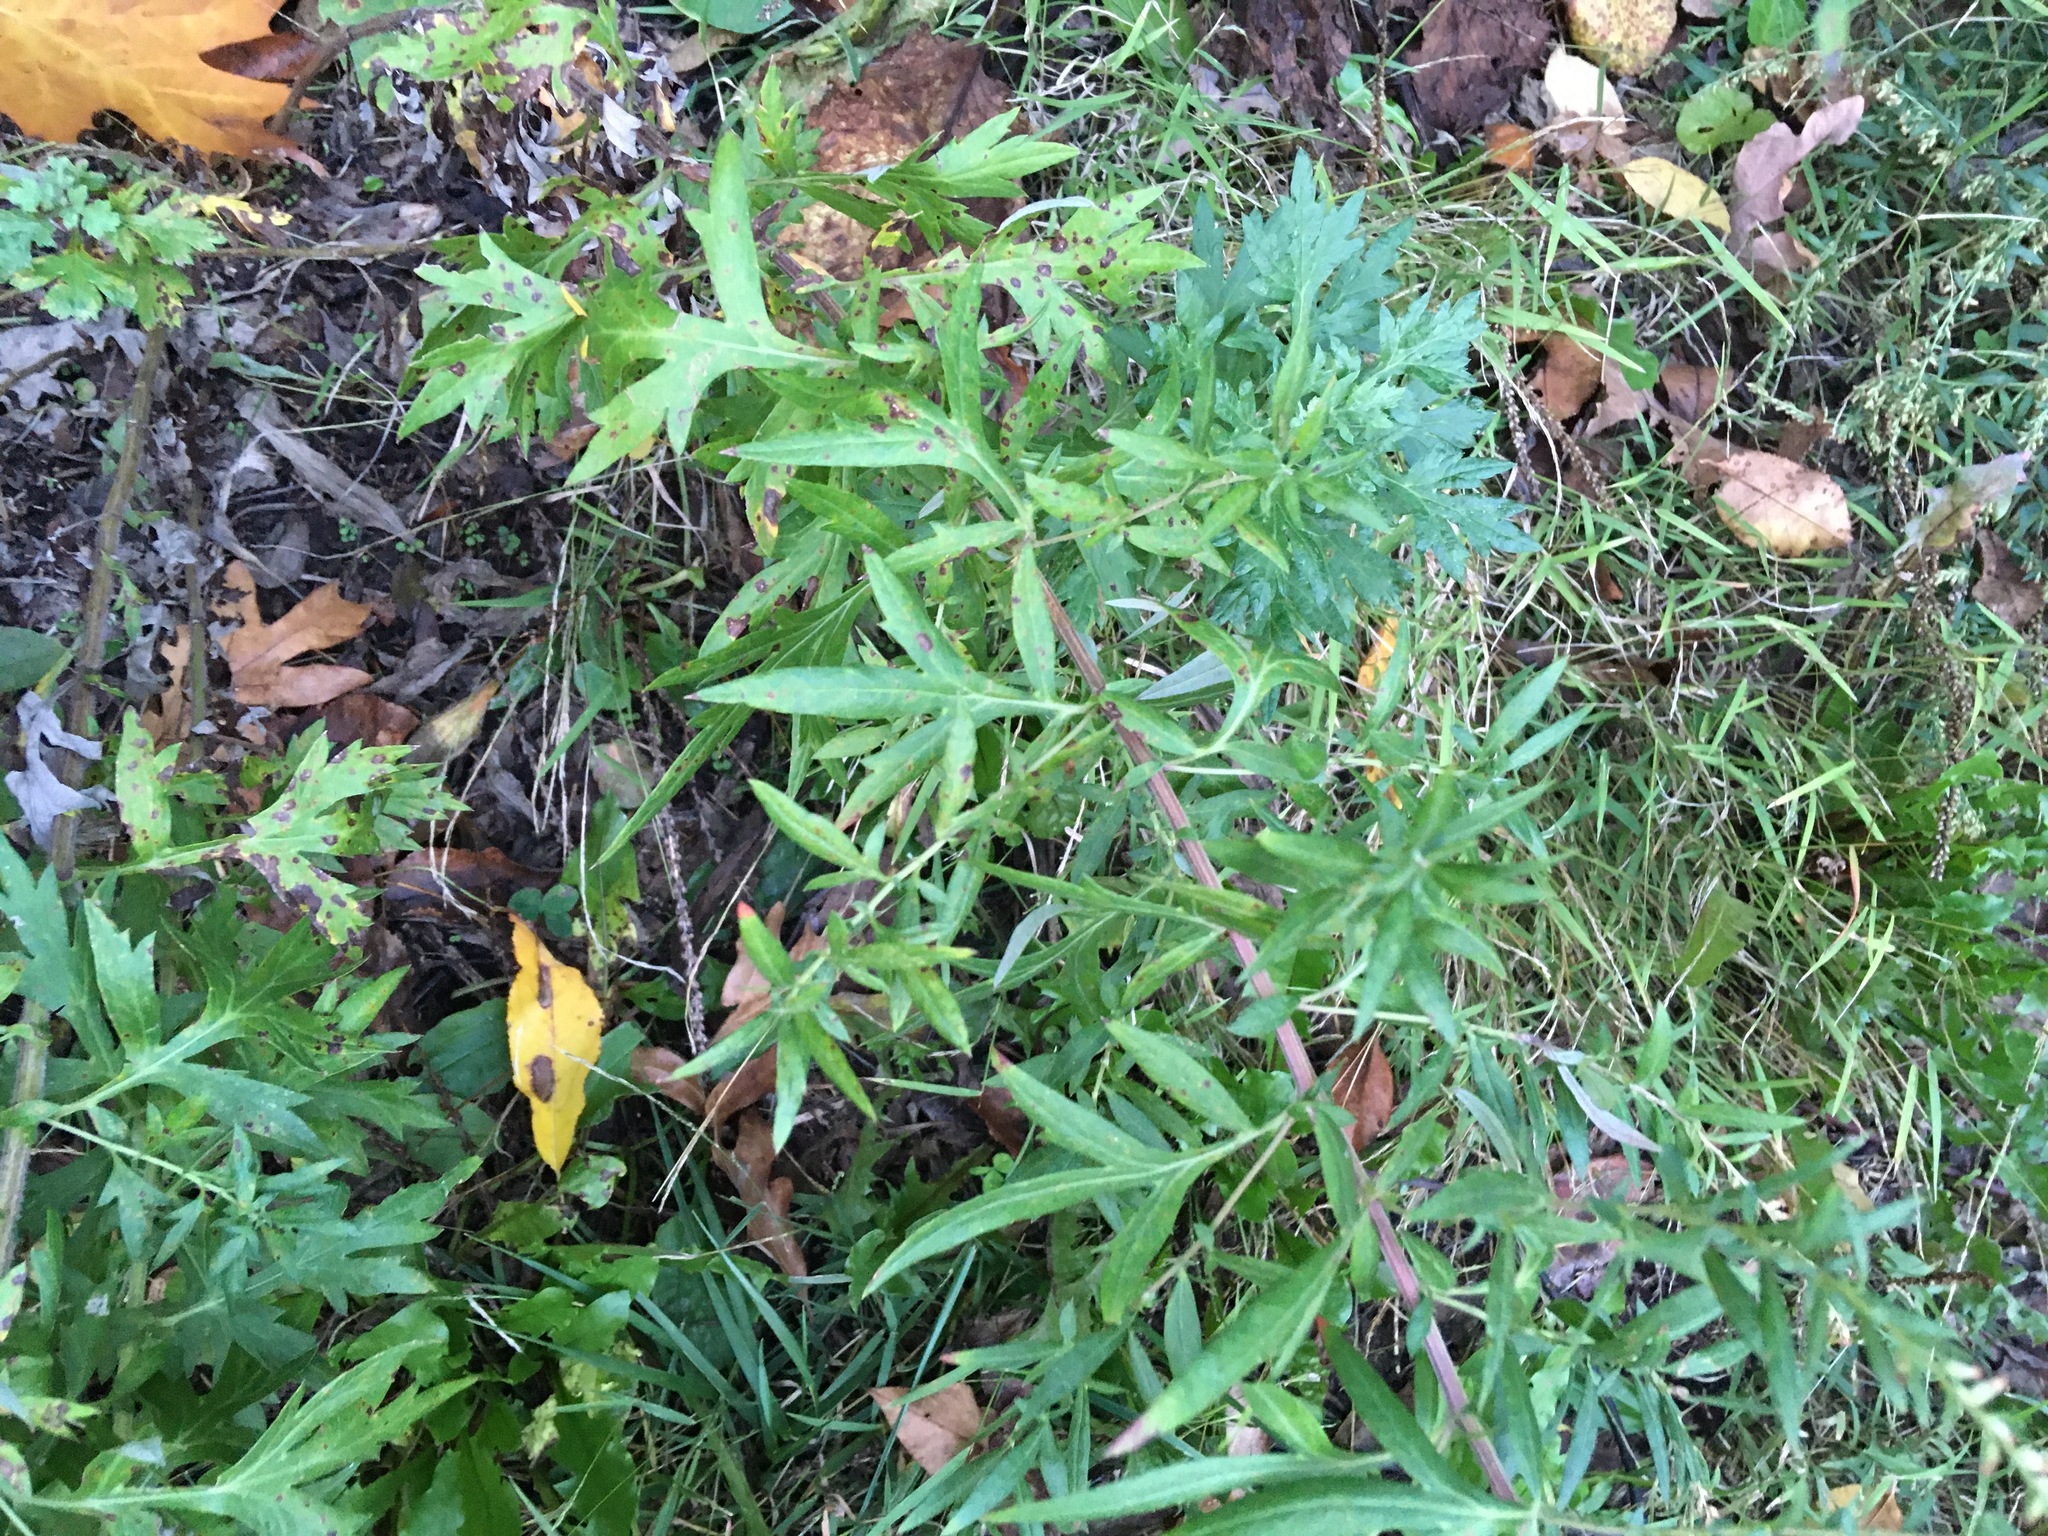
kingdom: Plantae
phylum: Tracheophyta
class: Magnoliopsida
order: Asterales
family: Asteraceae
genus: Artemisia
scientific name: Artemisia vulgaris
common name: Mugwort
